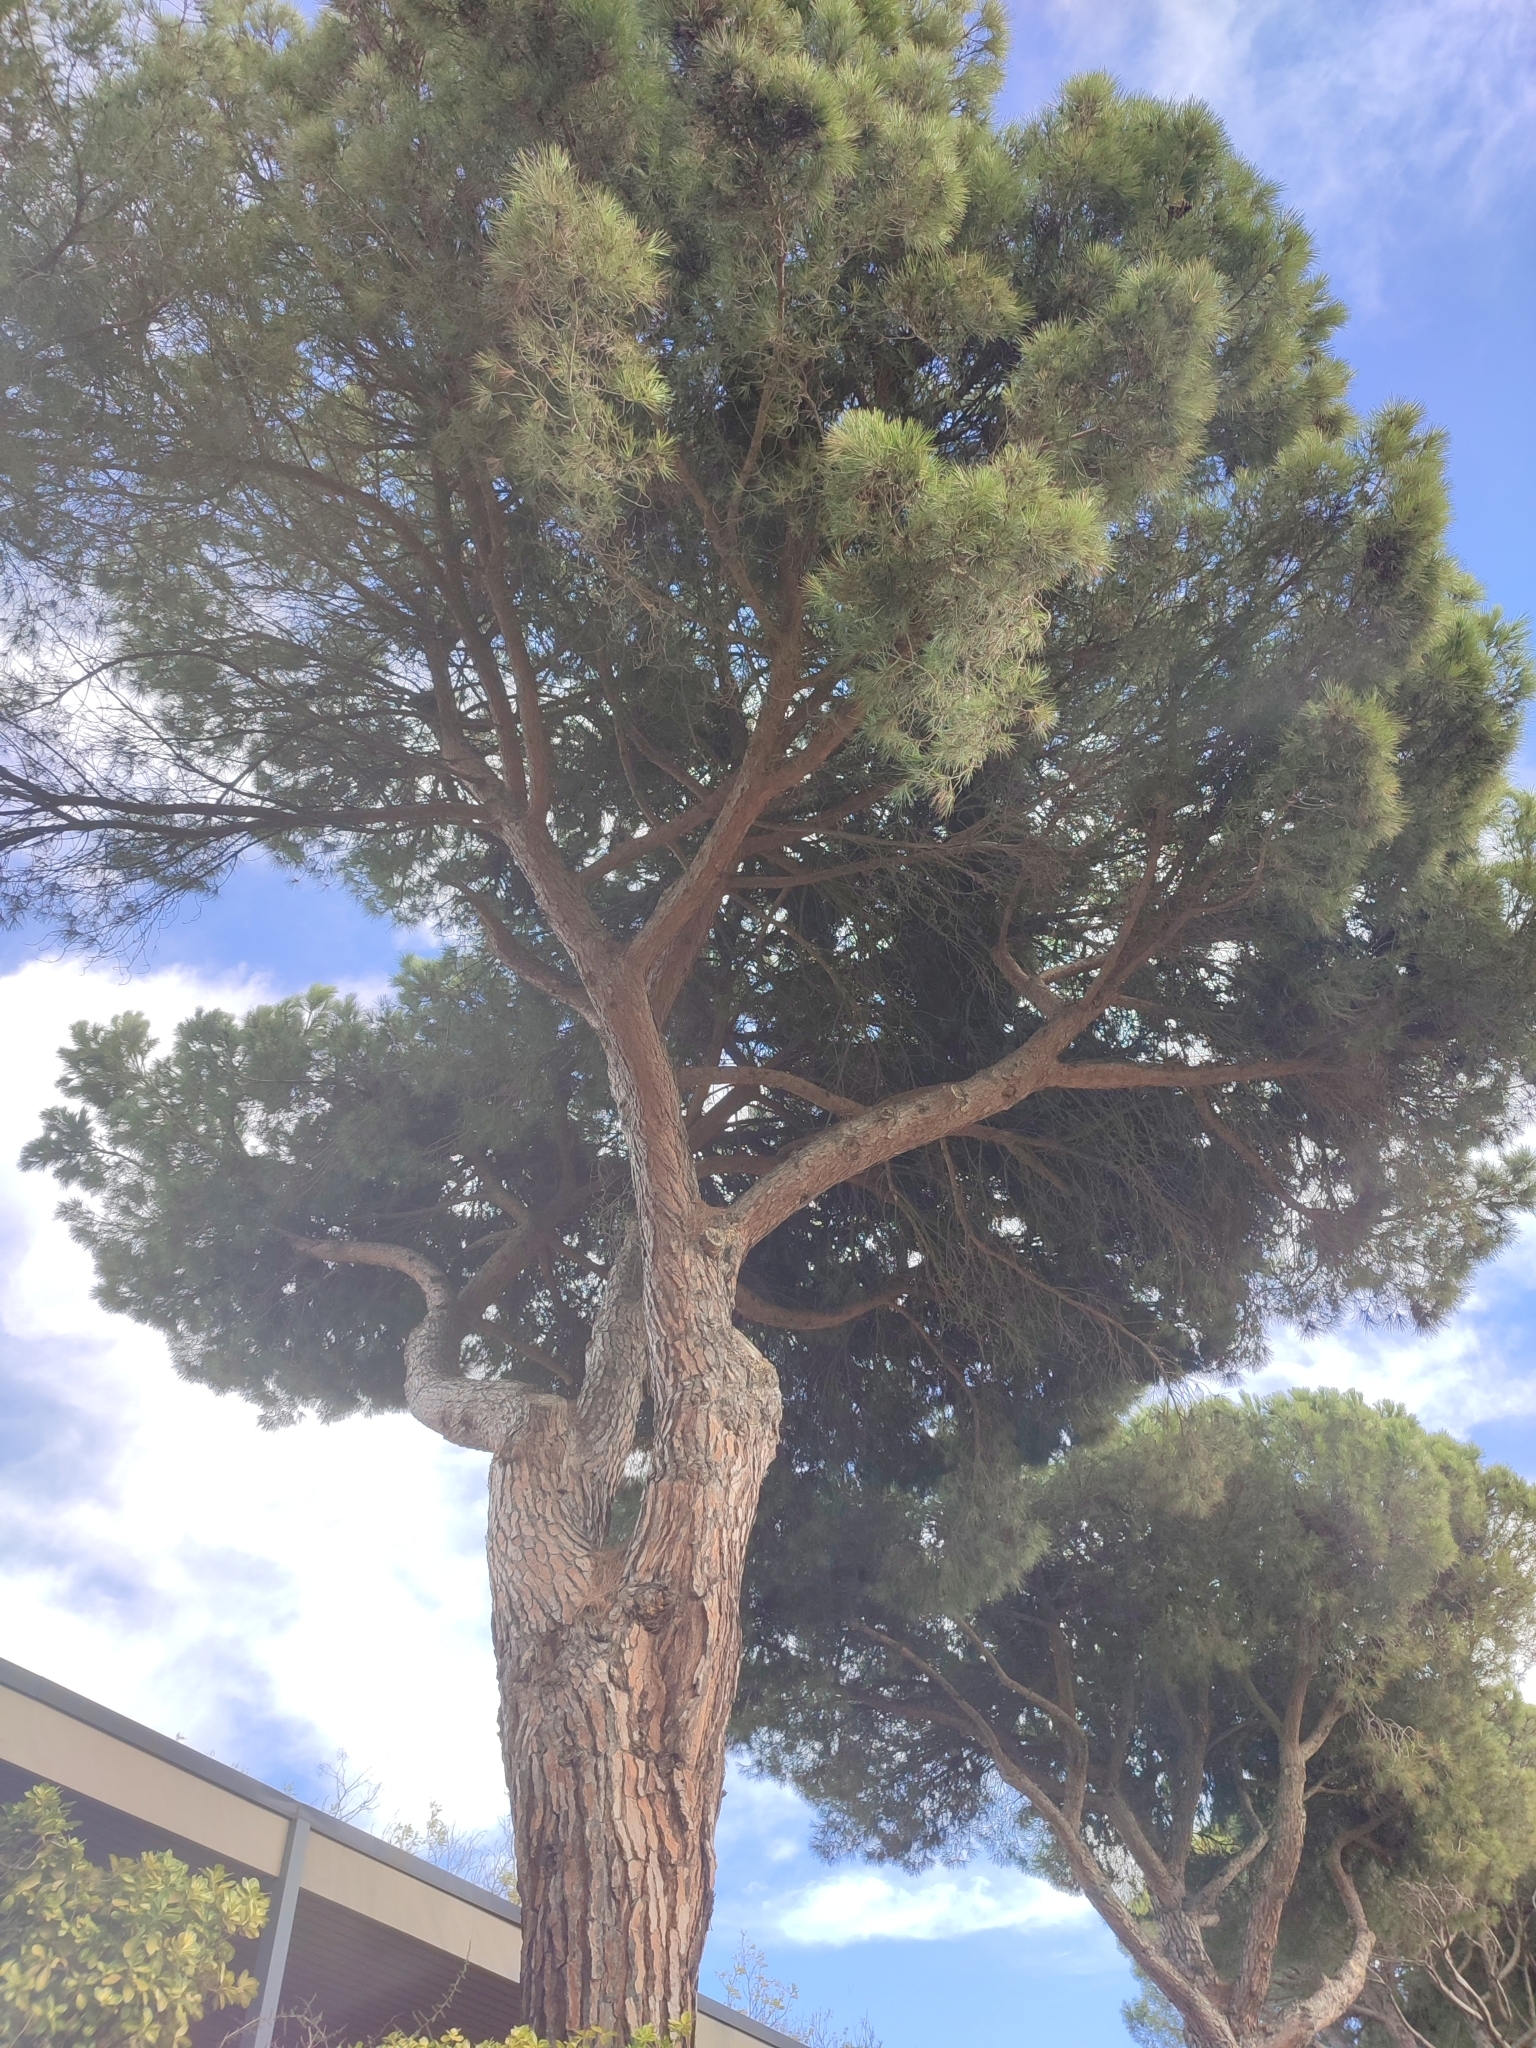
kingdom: Plantae
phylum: Tracheophyta
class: Pinopsida
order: Pinales
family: Pinaceae
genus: Pinus
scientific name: Pinus pinea
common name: Italian stone pine
